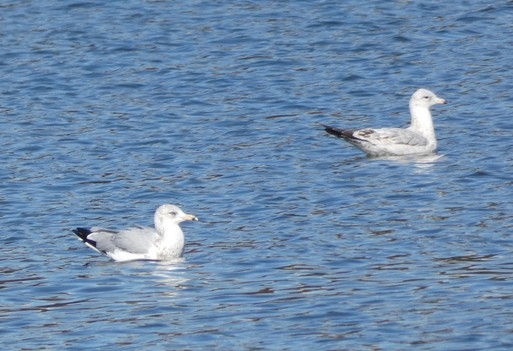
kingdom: Animalia
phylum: Chordata
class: Aves
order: Charadriiformes
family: Laridae
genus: Larus
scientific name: Larus delawarensis
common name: Ring-billed gull
